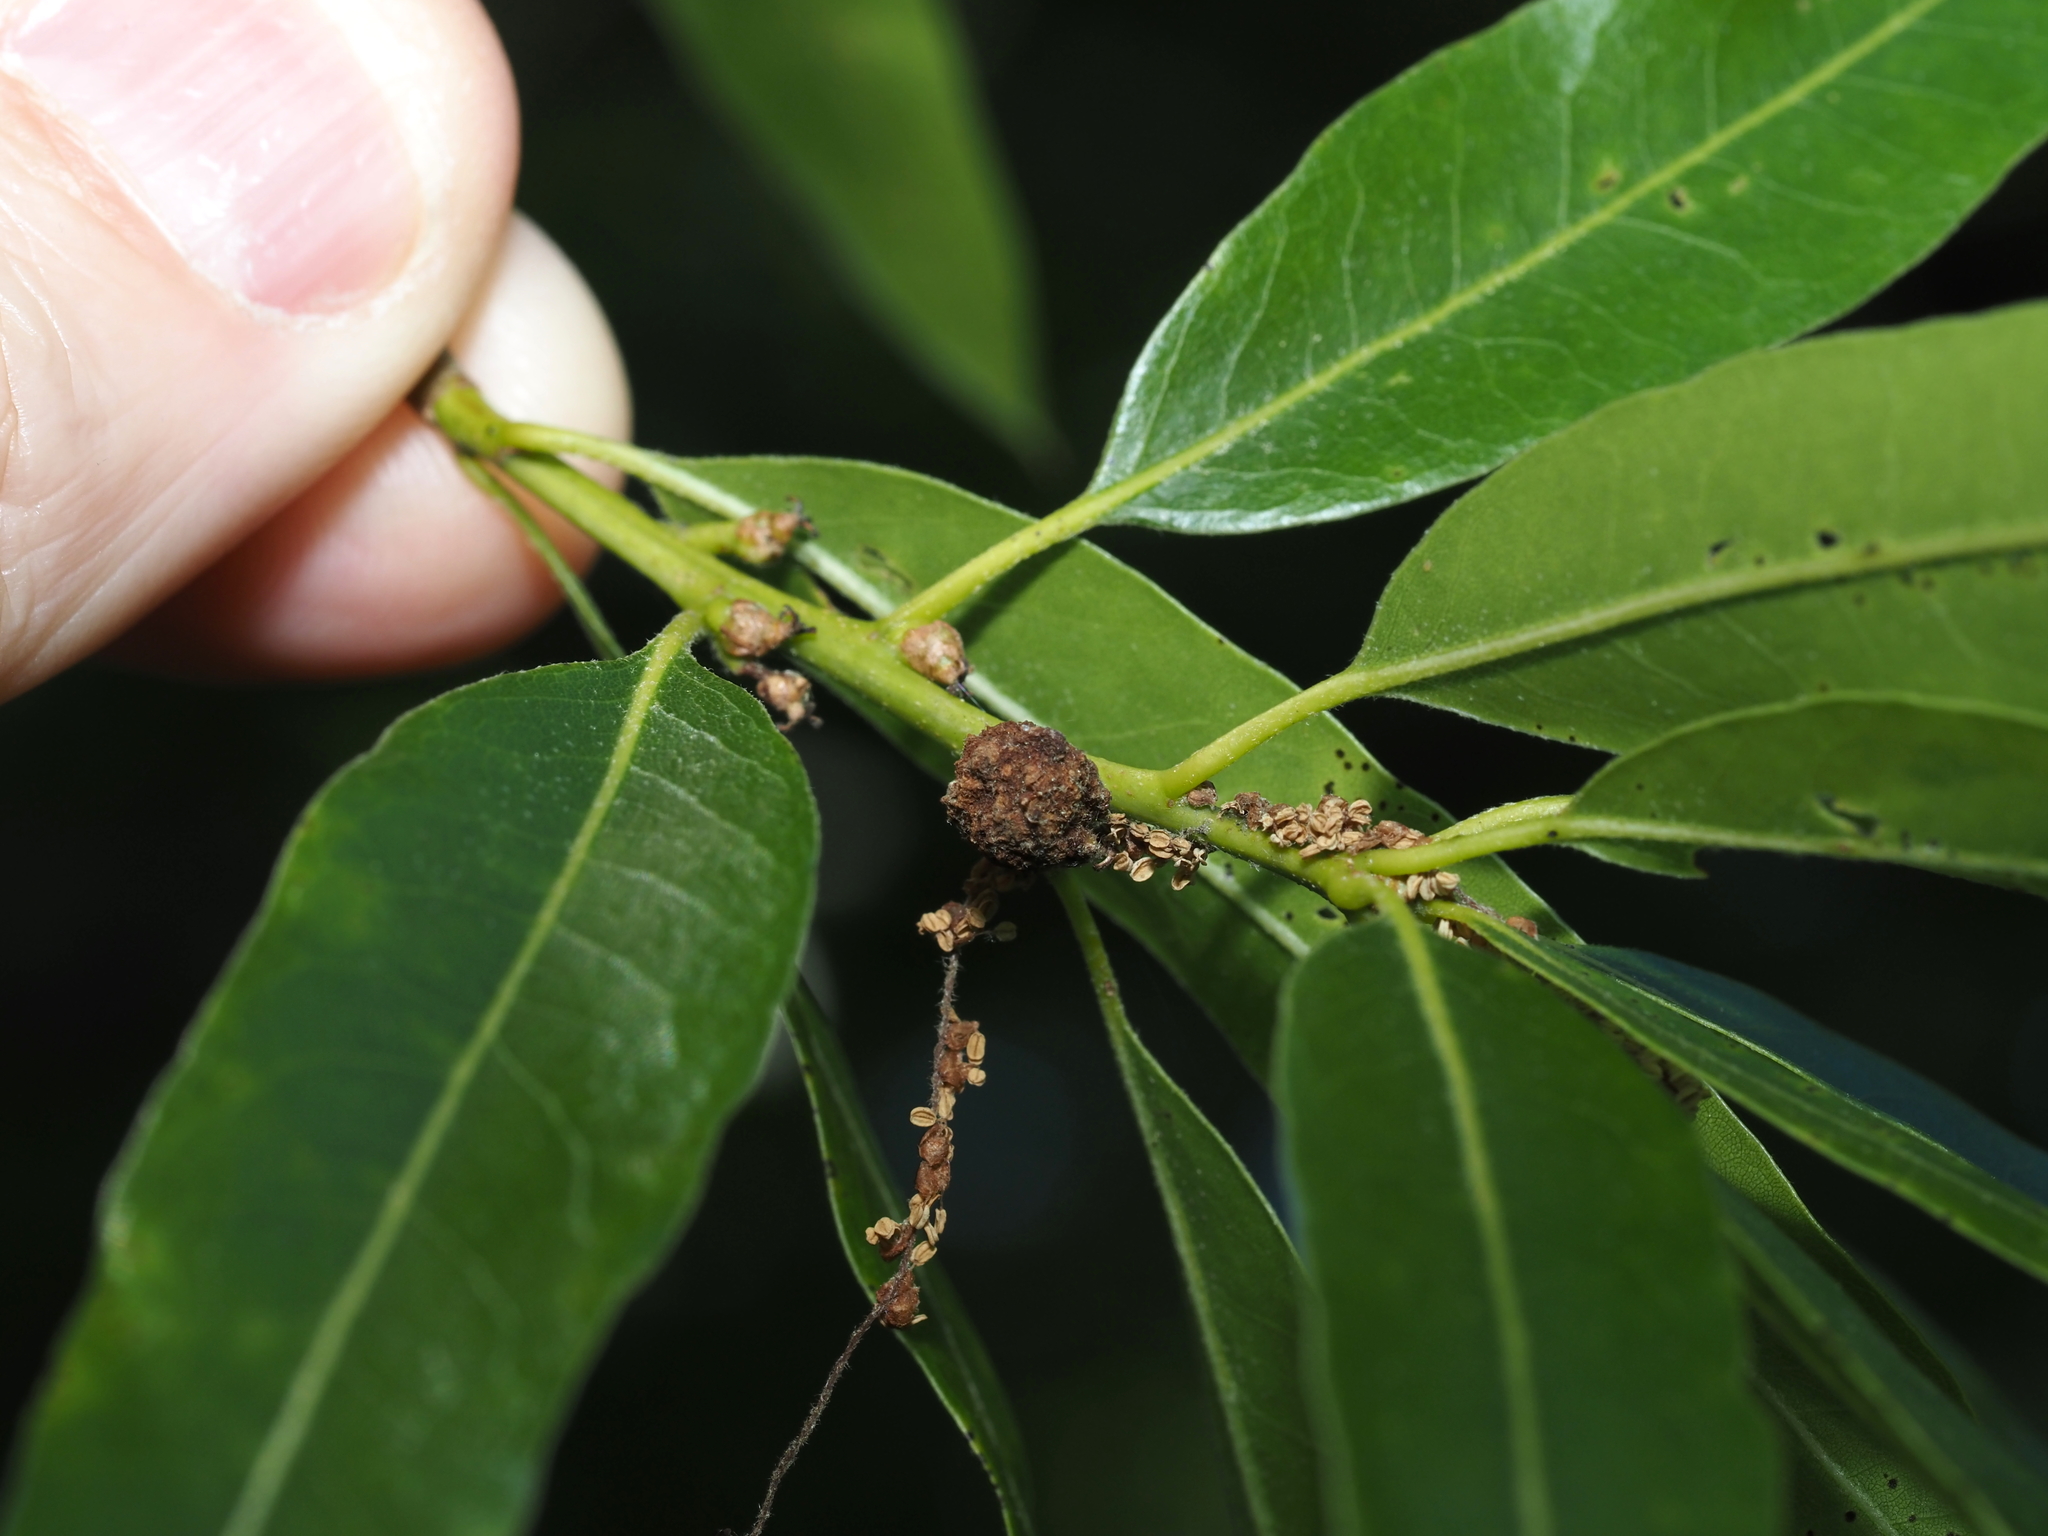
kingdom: Animalia
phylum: Arthropoda
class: Insecta
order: Hymenoptera
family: Cynipidae
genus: Dryocosmus
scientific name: Dryocosmus
